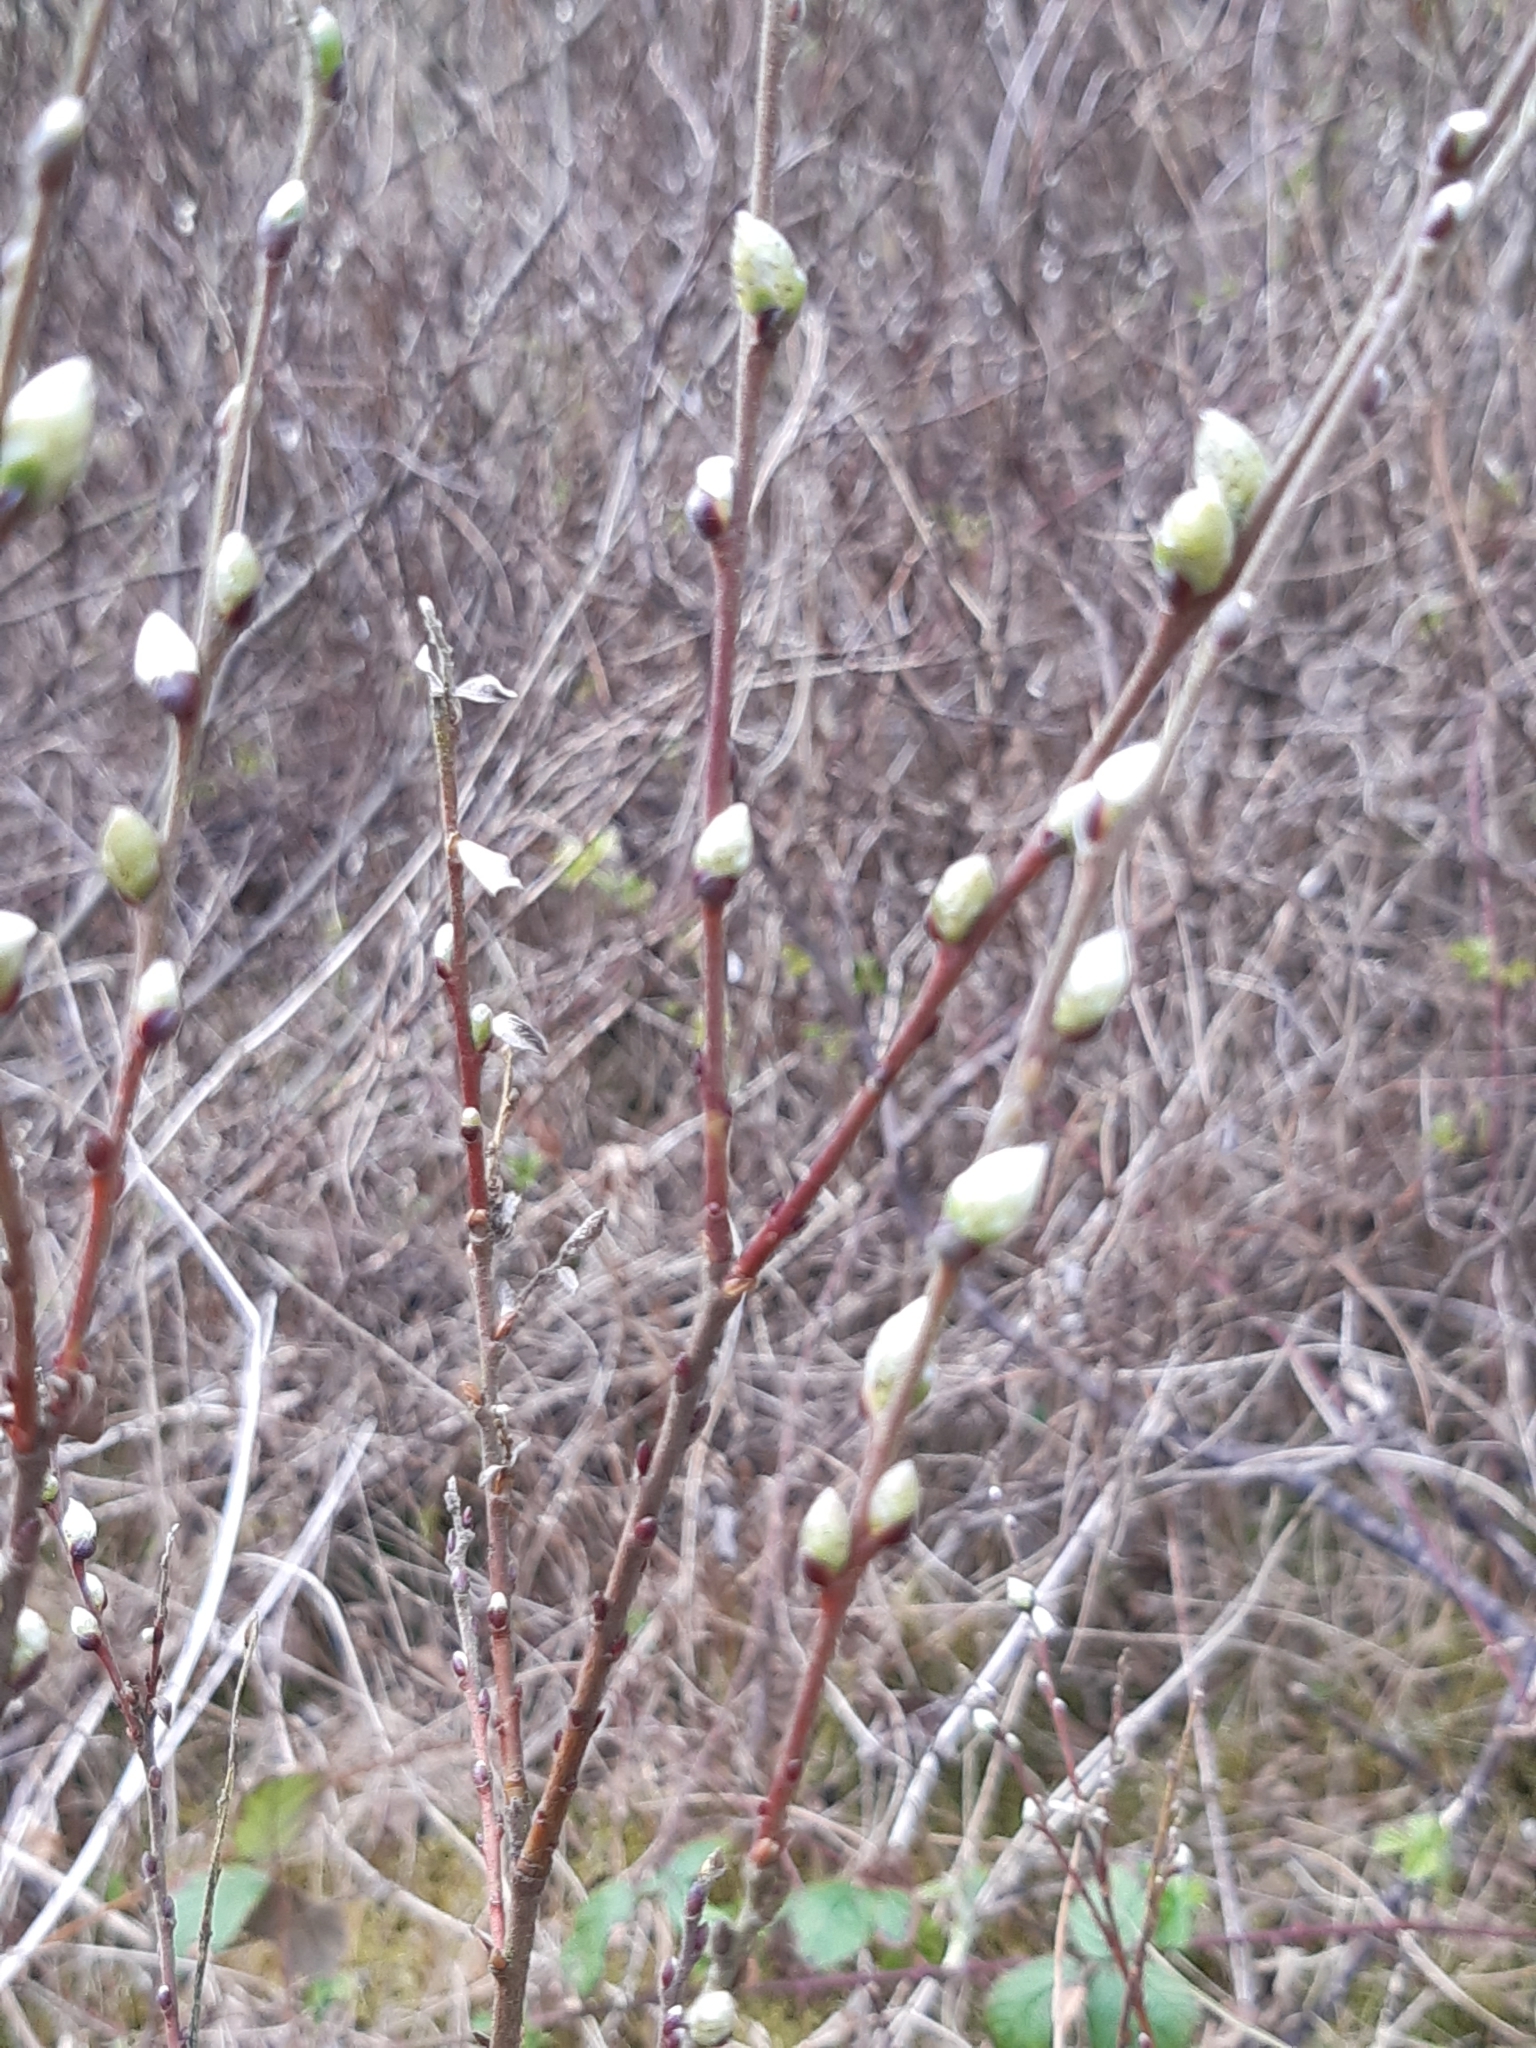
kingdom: Plantae
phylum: Tracheophyta
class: Magnoliopsida
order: Malpighiales
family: Salicaceae
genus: Salix
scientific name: Salix repens
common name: Creeping willow
